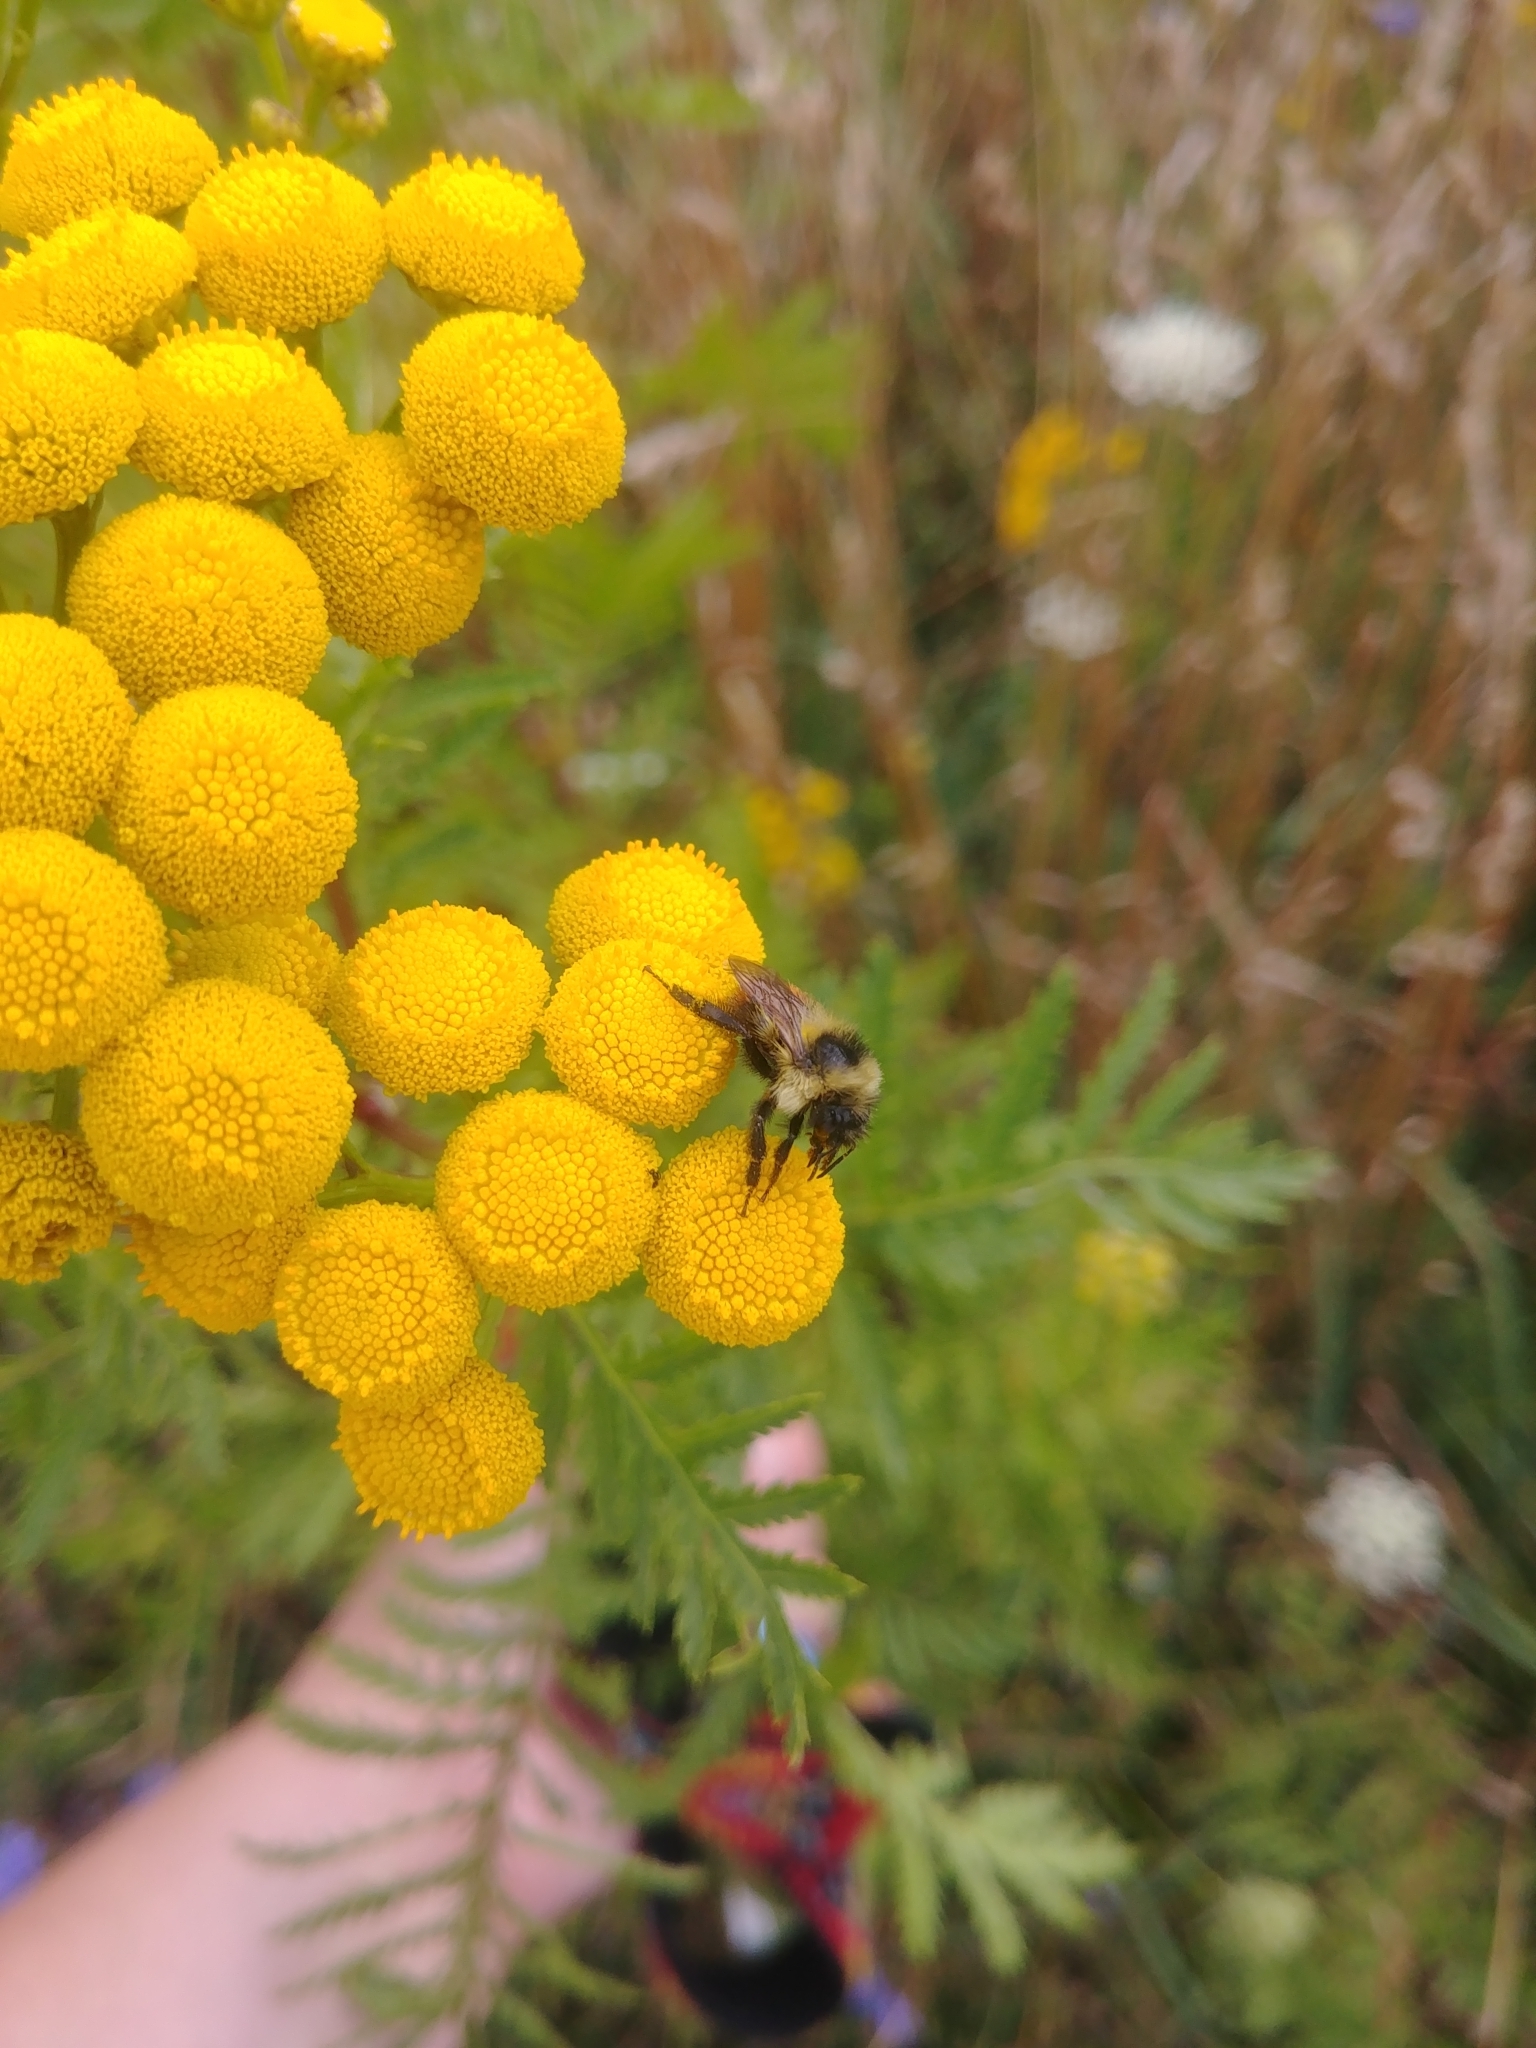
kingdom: Animalia
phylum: Arthropoda
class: Insecta
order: Hymenoptera
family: Apidae
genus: Bombus
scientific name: Bombus rufocinctus
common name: Red-belted bumble bee
